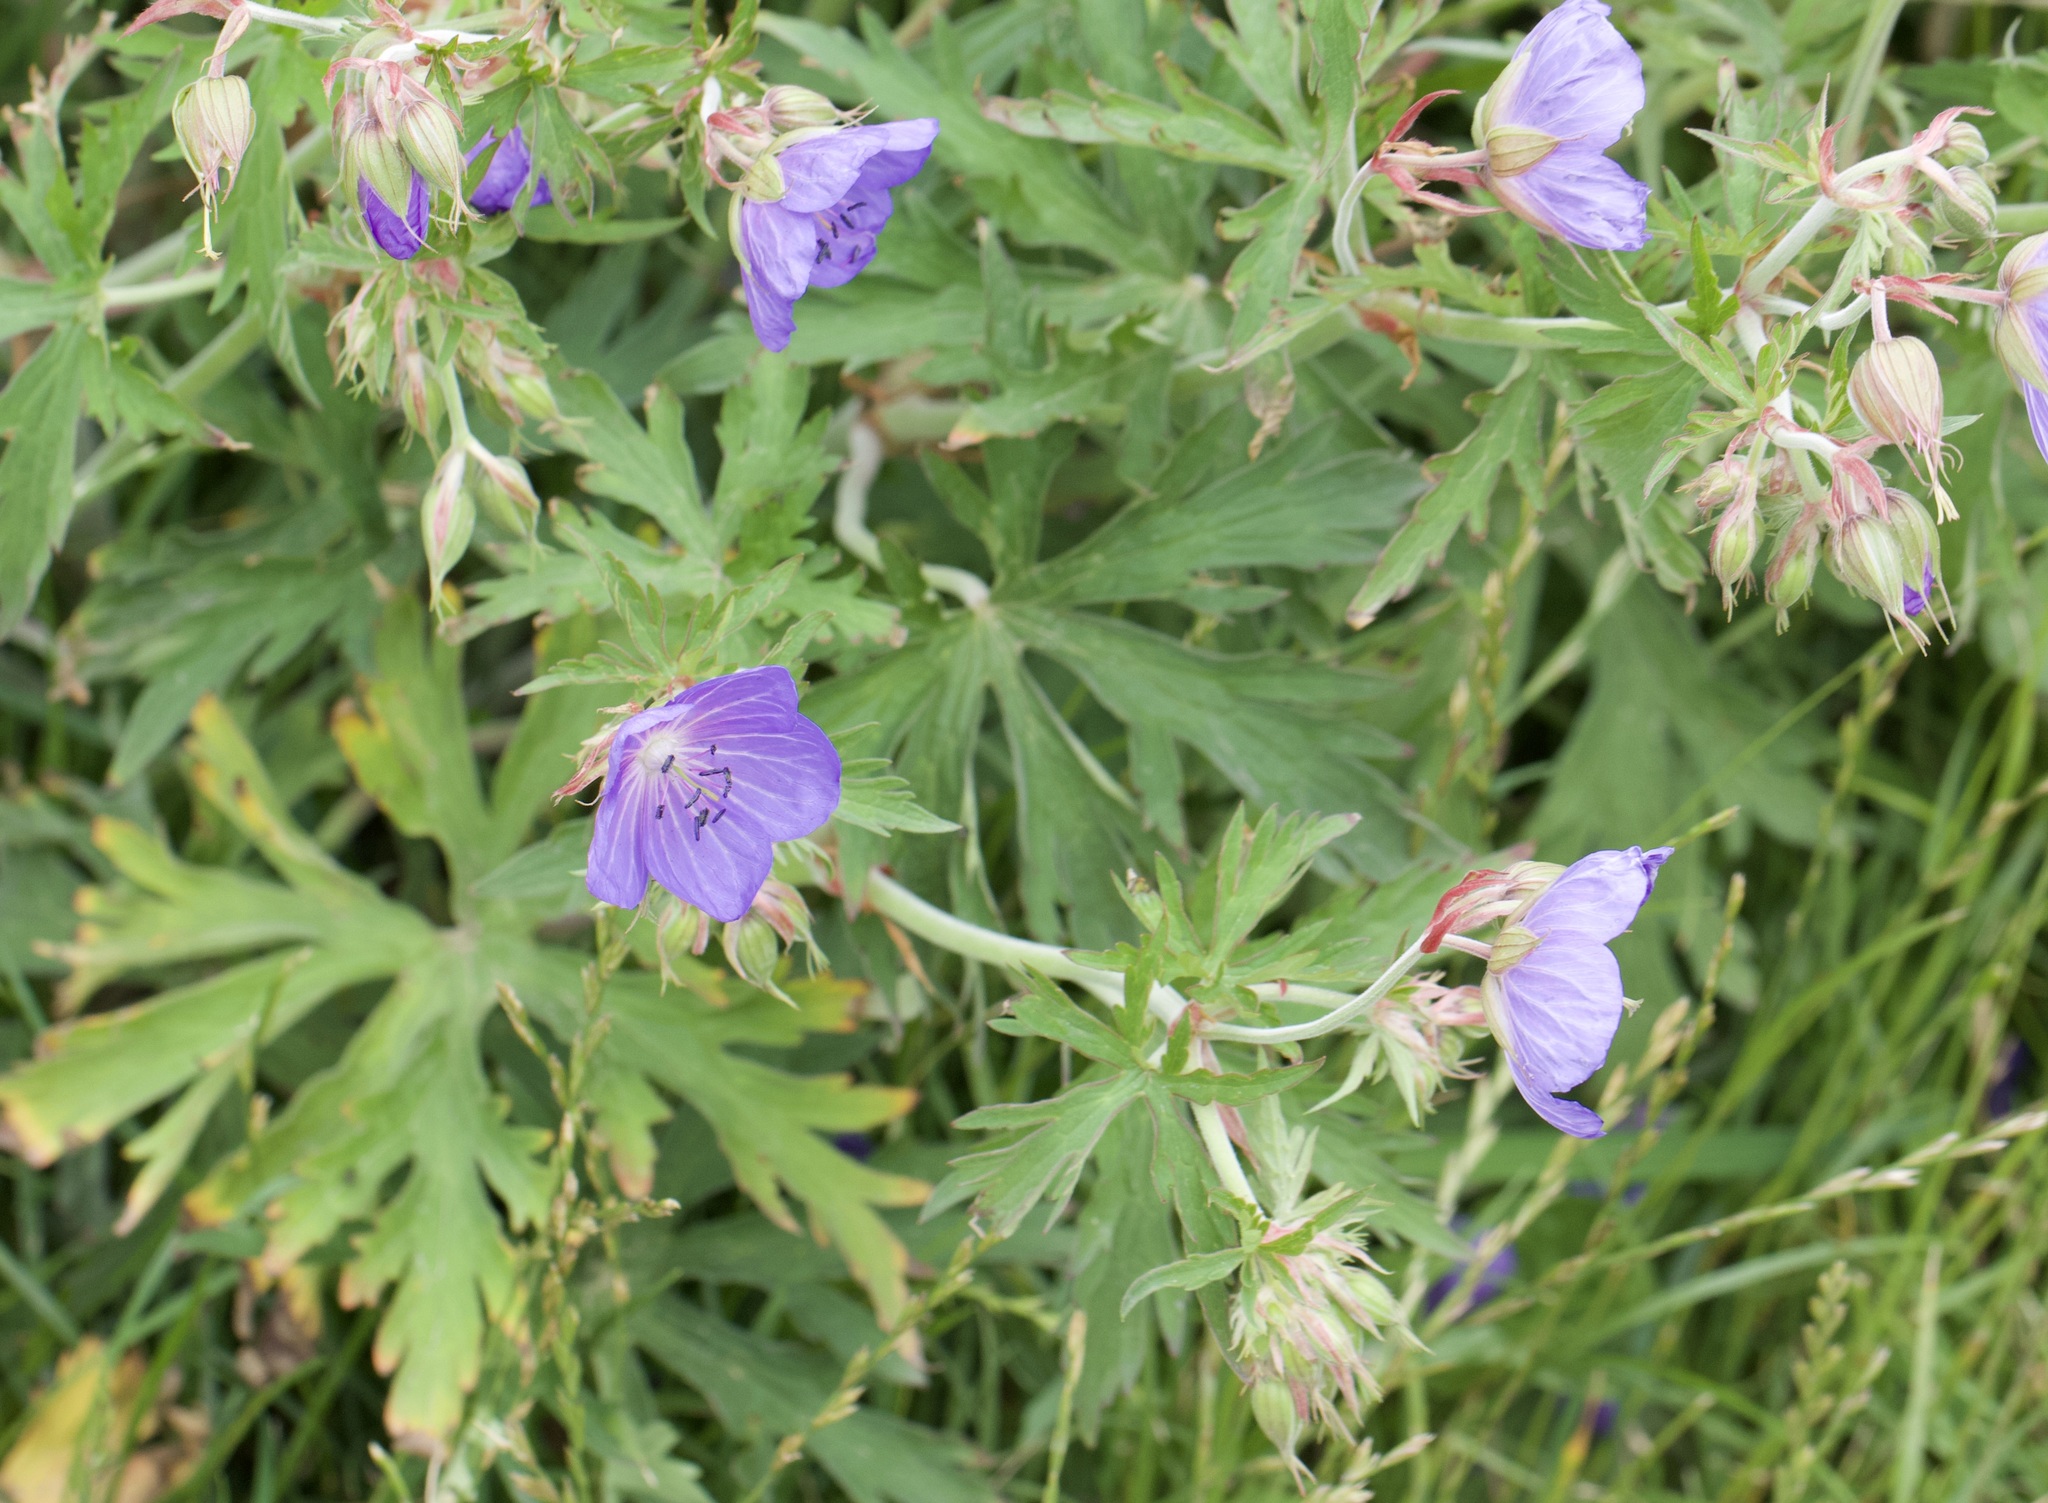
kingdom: Plantae
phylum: Tracheophyta
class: Magnoliopsida
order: Geraniales
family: Geraniaceae
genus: Geranium
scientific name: Geranium pratense
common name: Meadow crane's-bill
